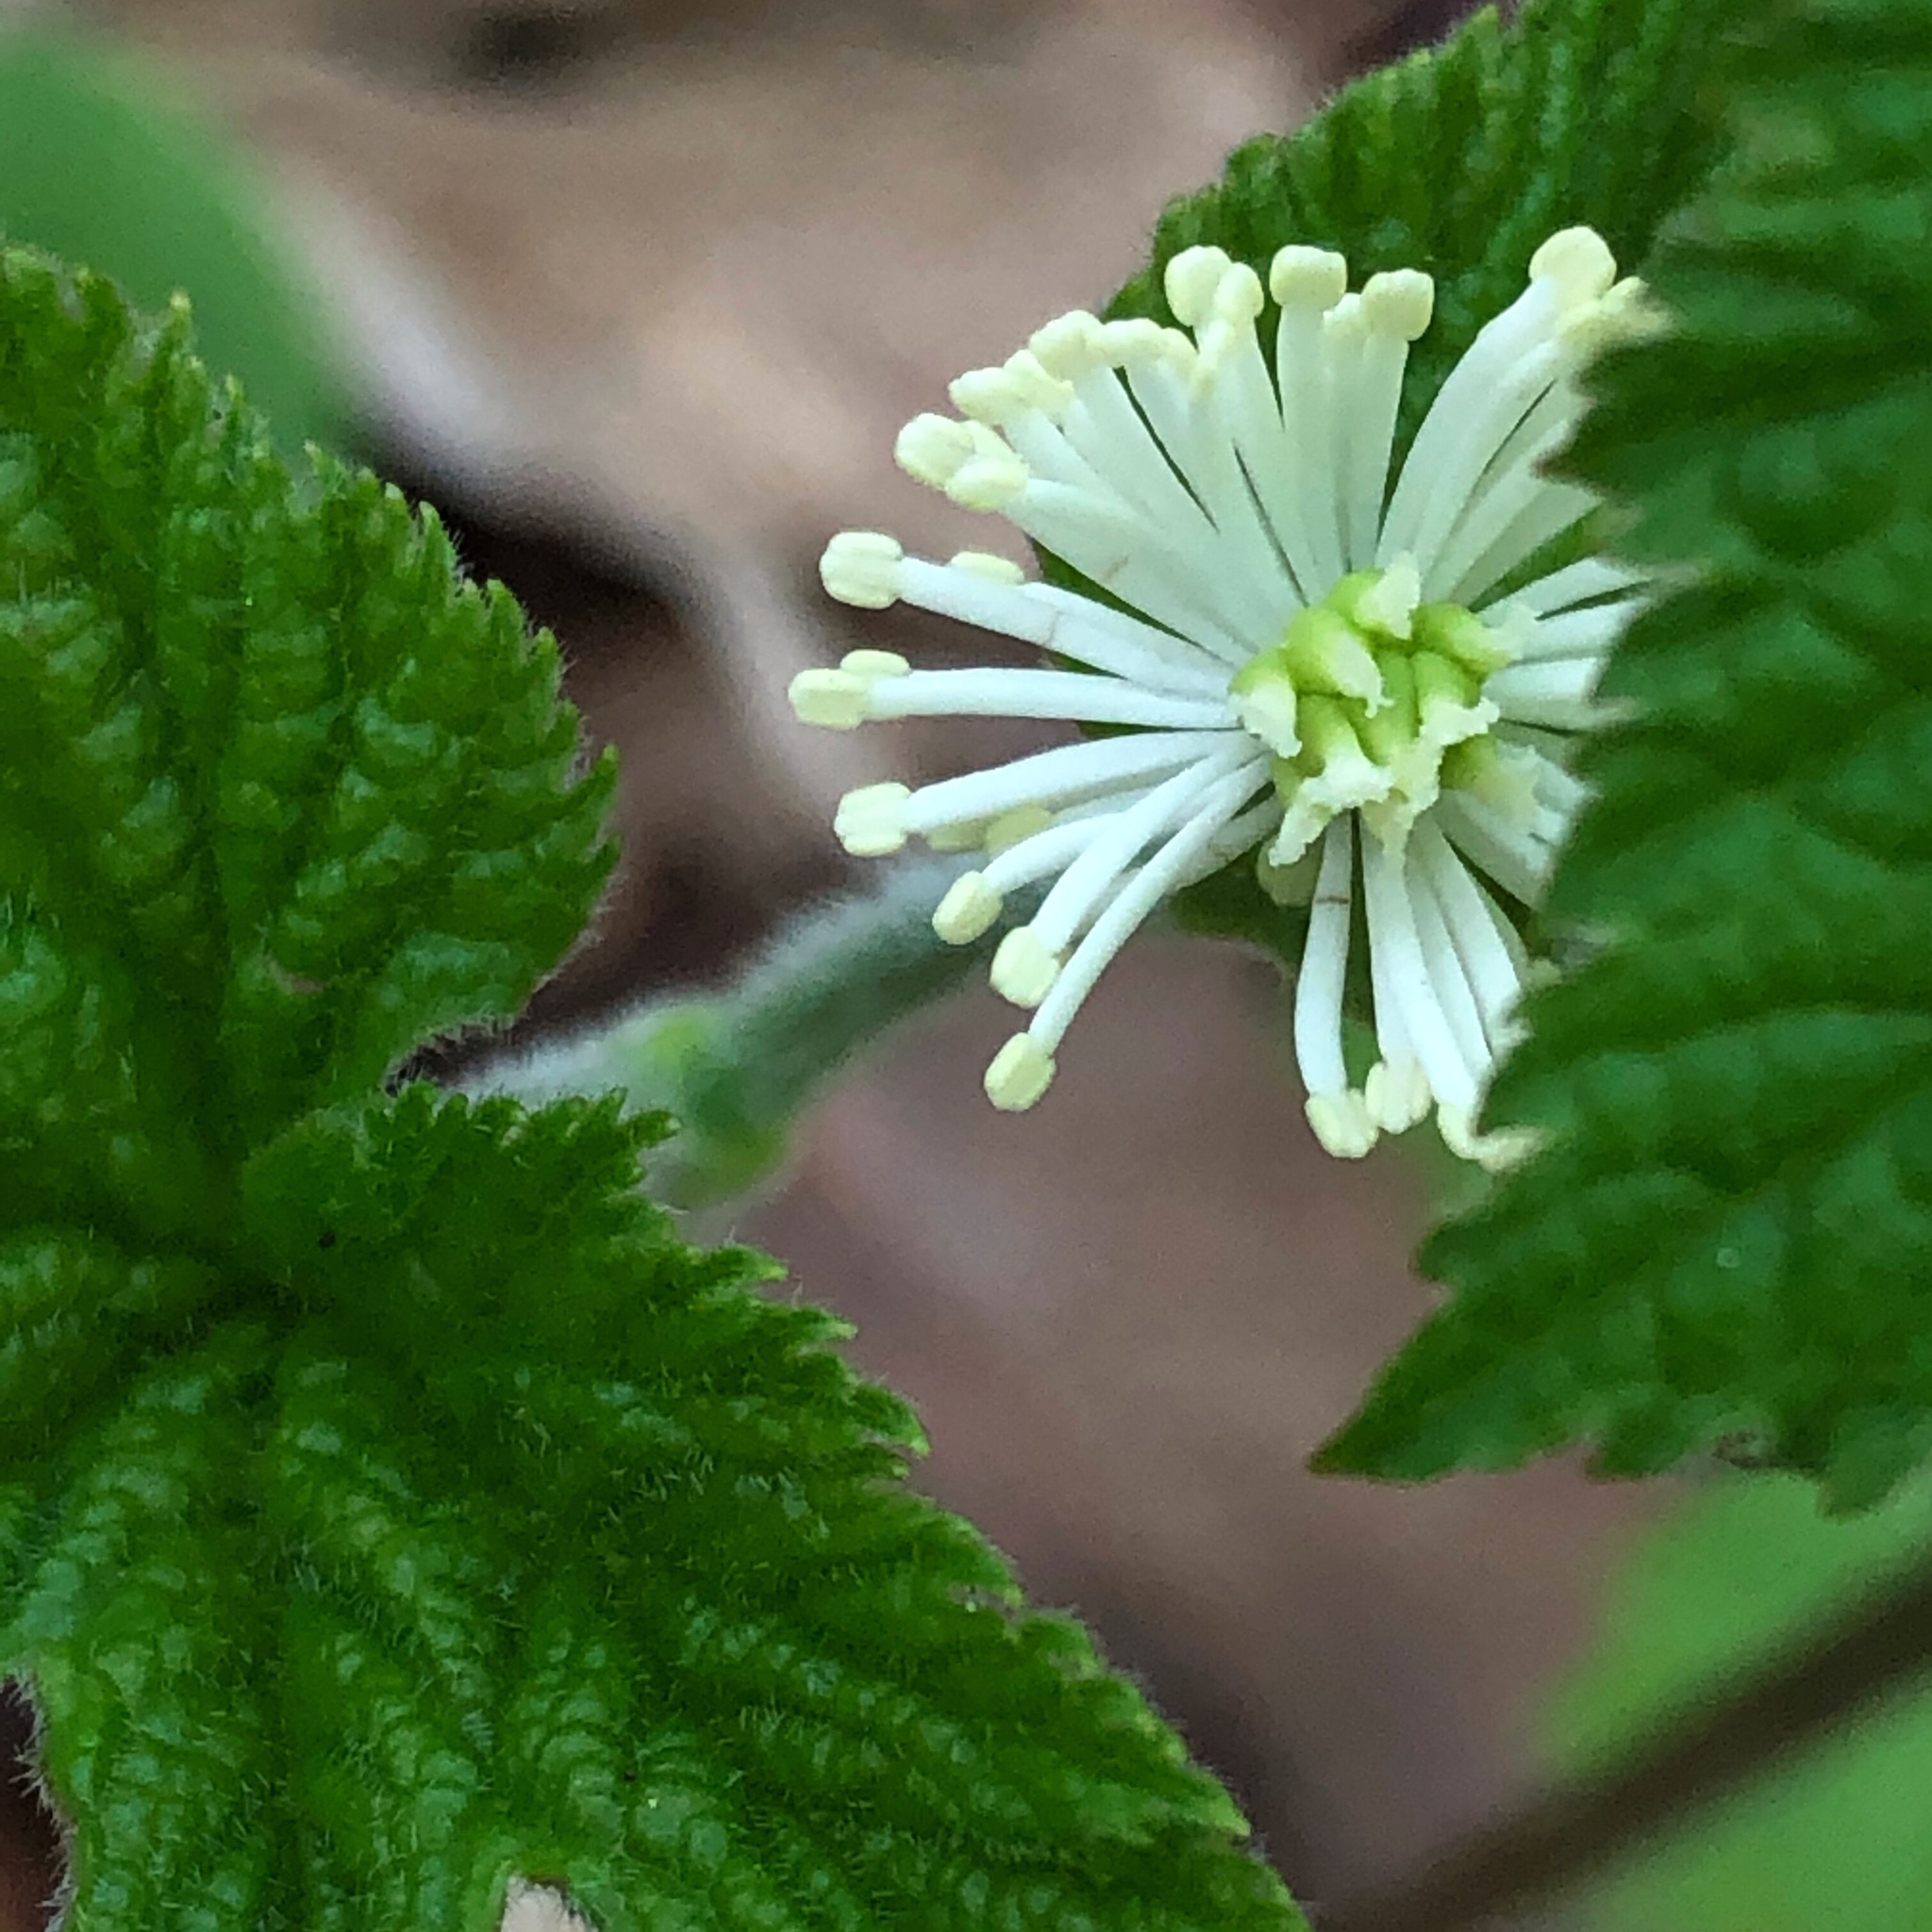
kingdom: Plantae
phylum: Tracheophyta
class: Magnoliopsida
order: Ranunculales
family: Ranunculaceae
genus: Hydrastis
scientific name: Hydrastis canadensis
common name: Goldenseal
